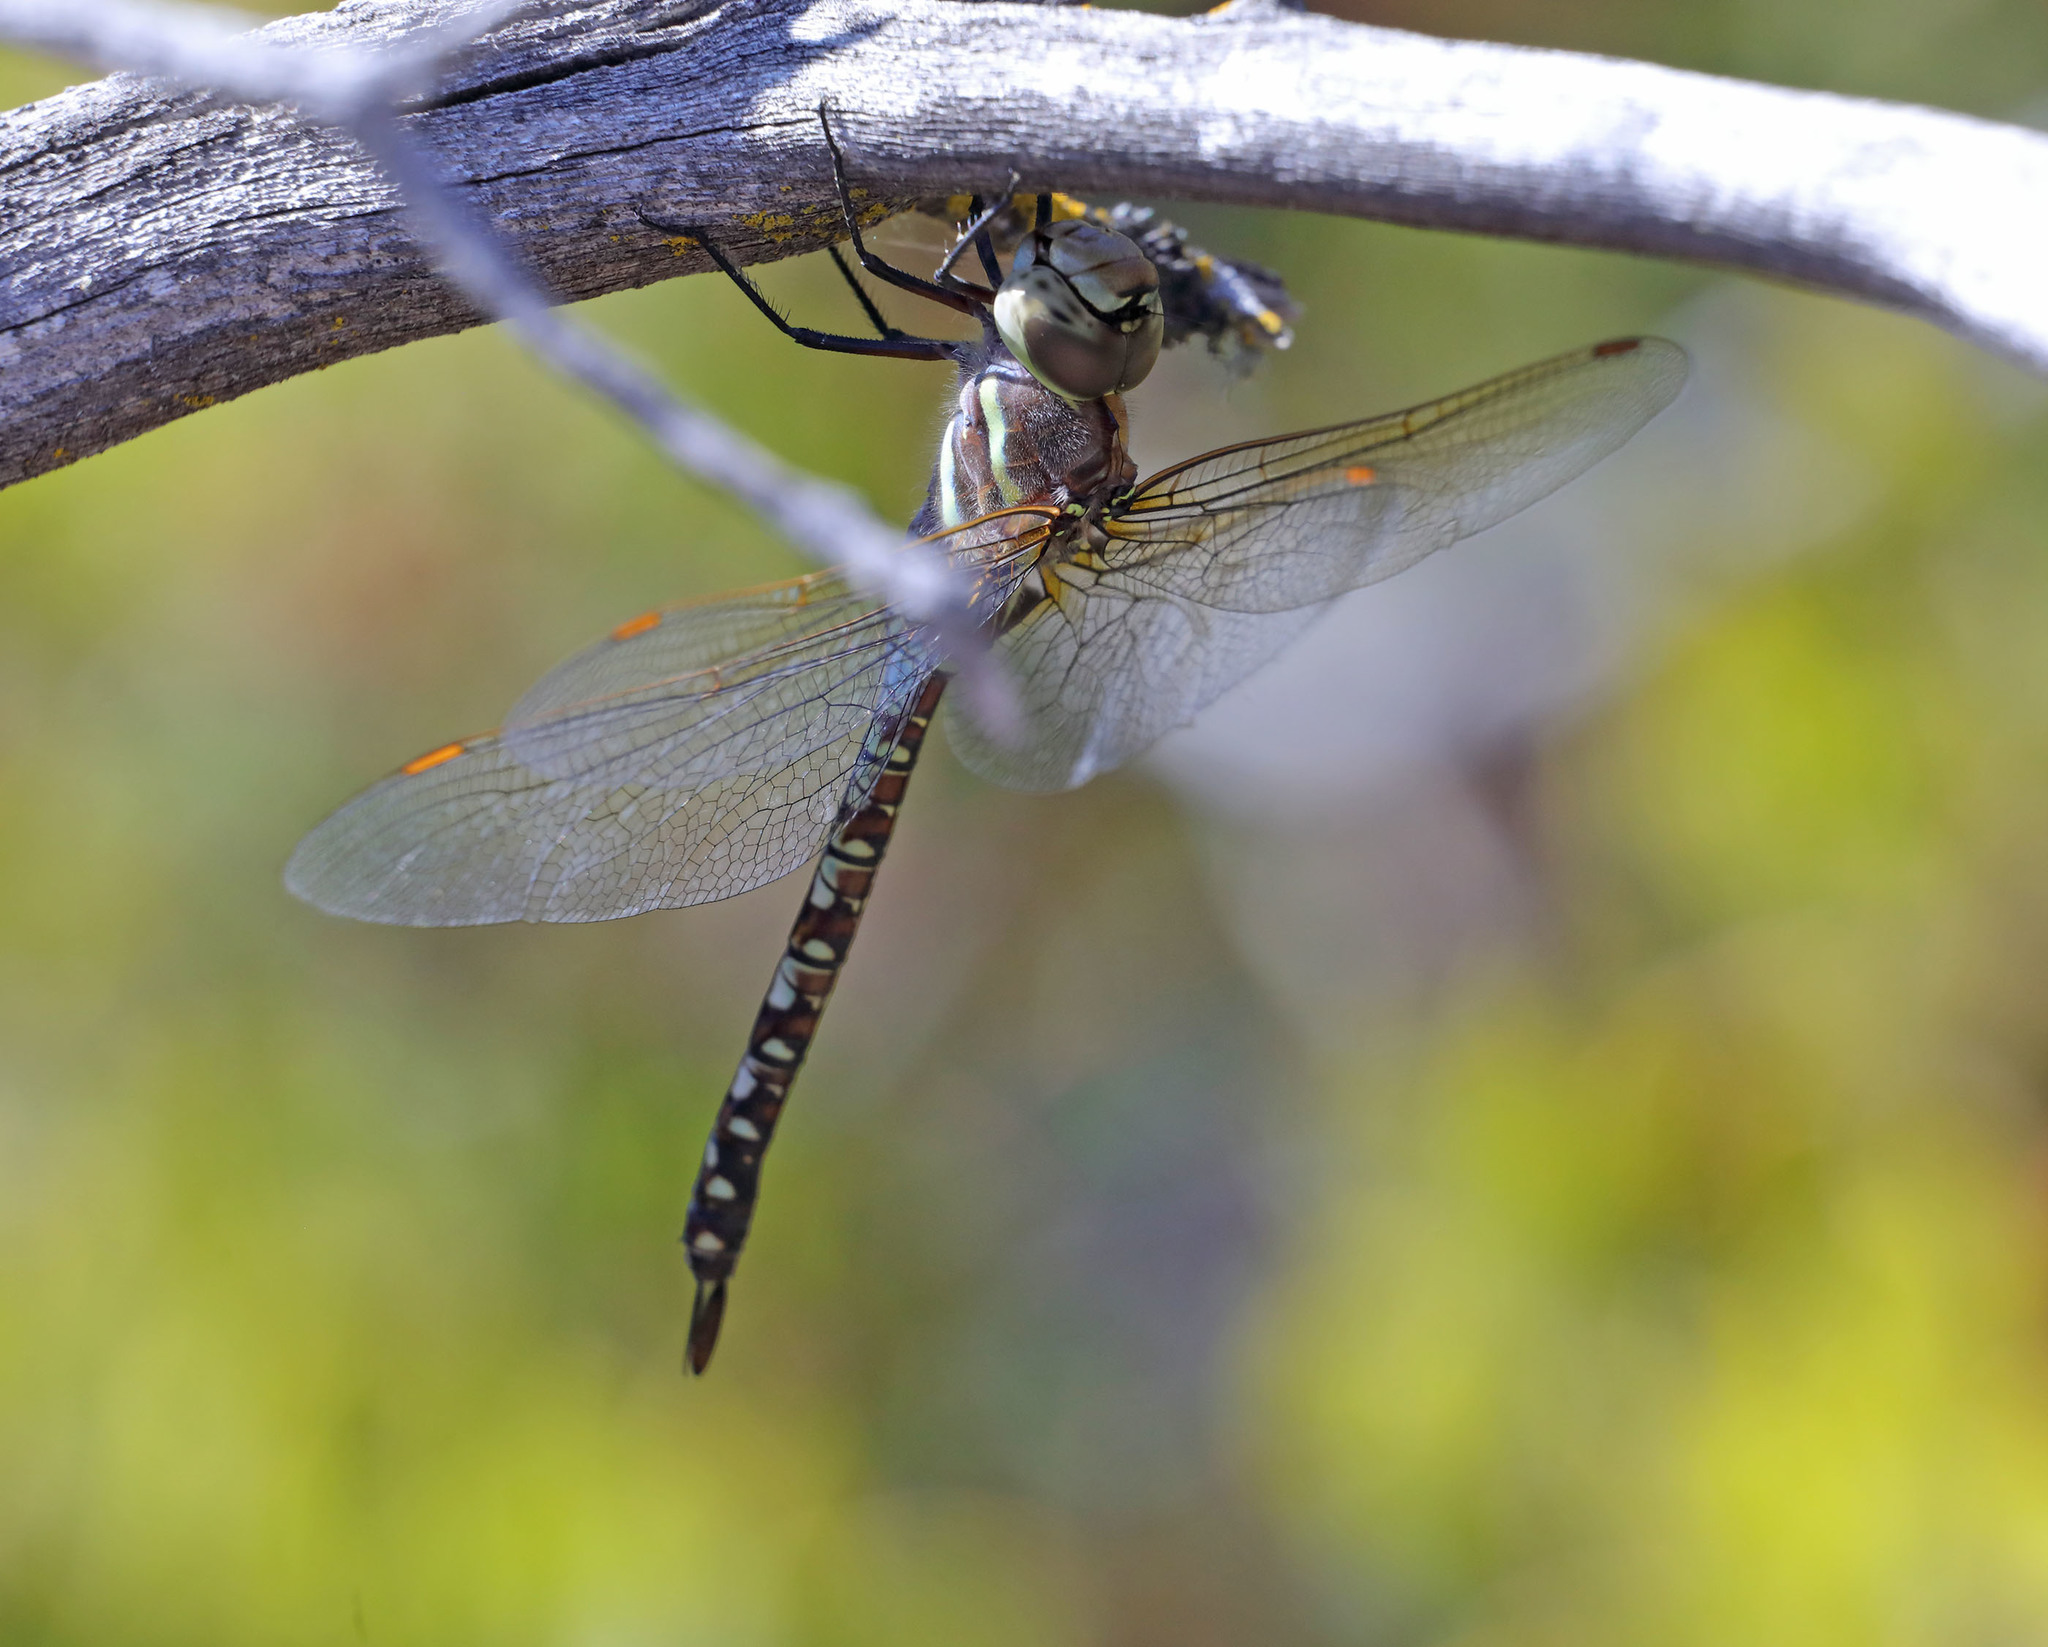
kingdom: Animalia
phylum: Arthropoda
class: Insecta
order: Odonata
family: Aeshnidae
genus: Rhionaeschna
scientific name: Rhionaeschna multicolor
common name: Blue-eyed darner
